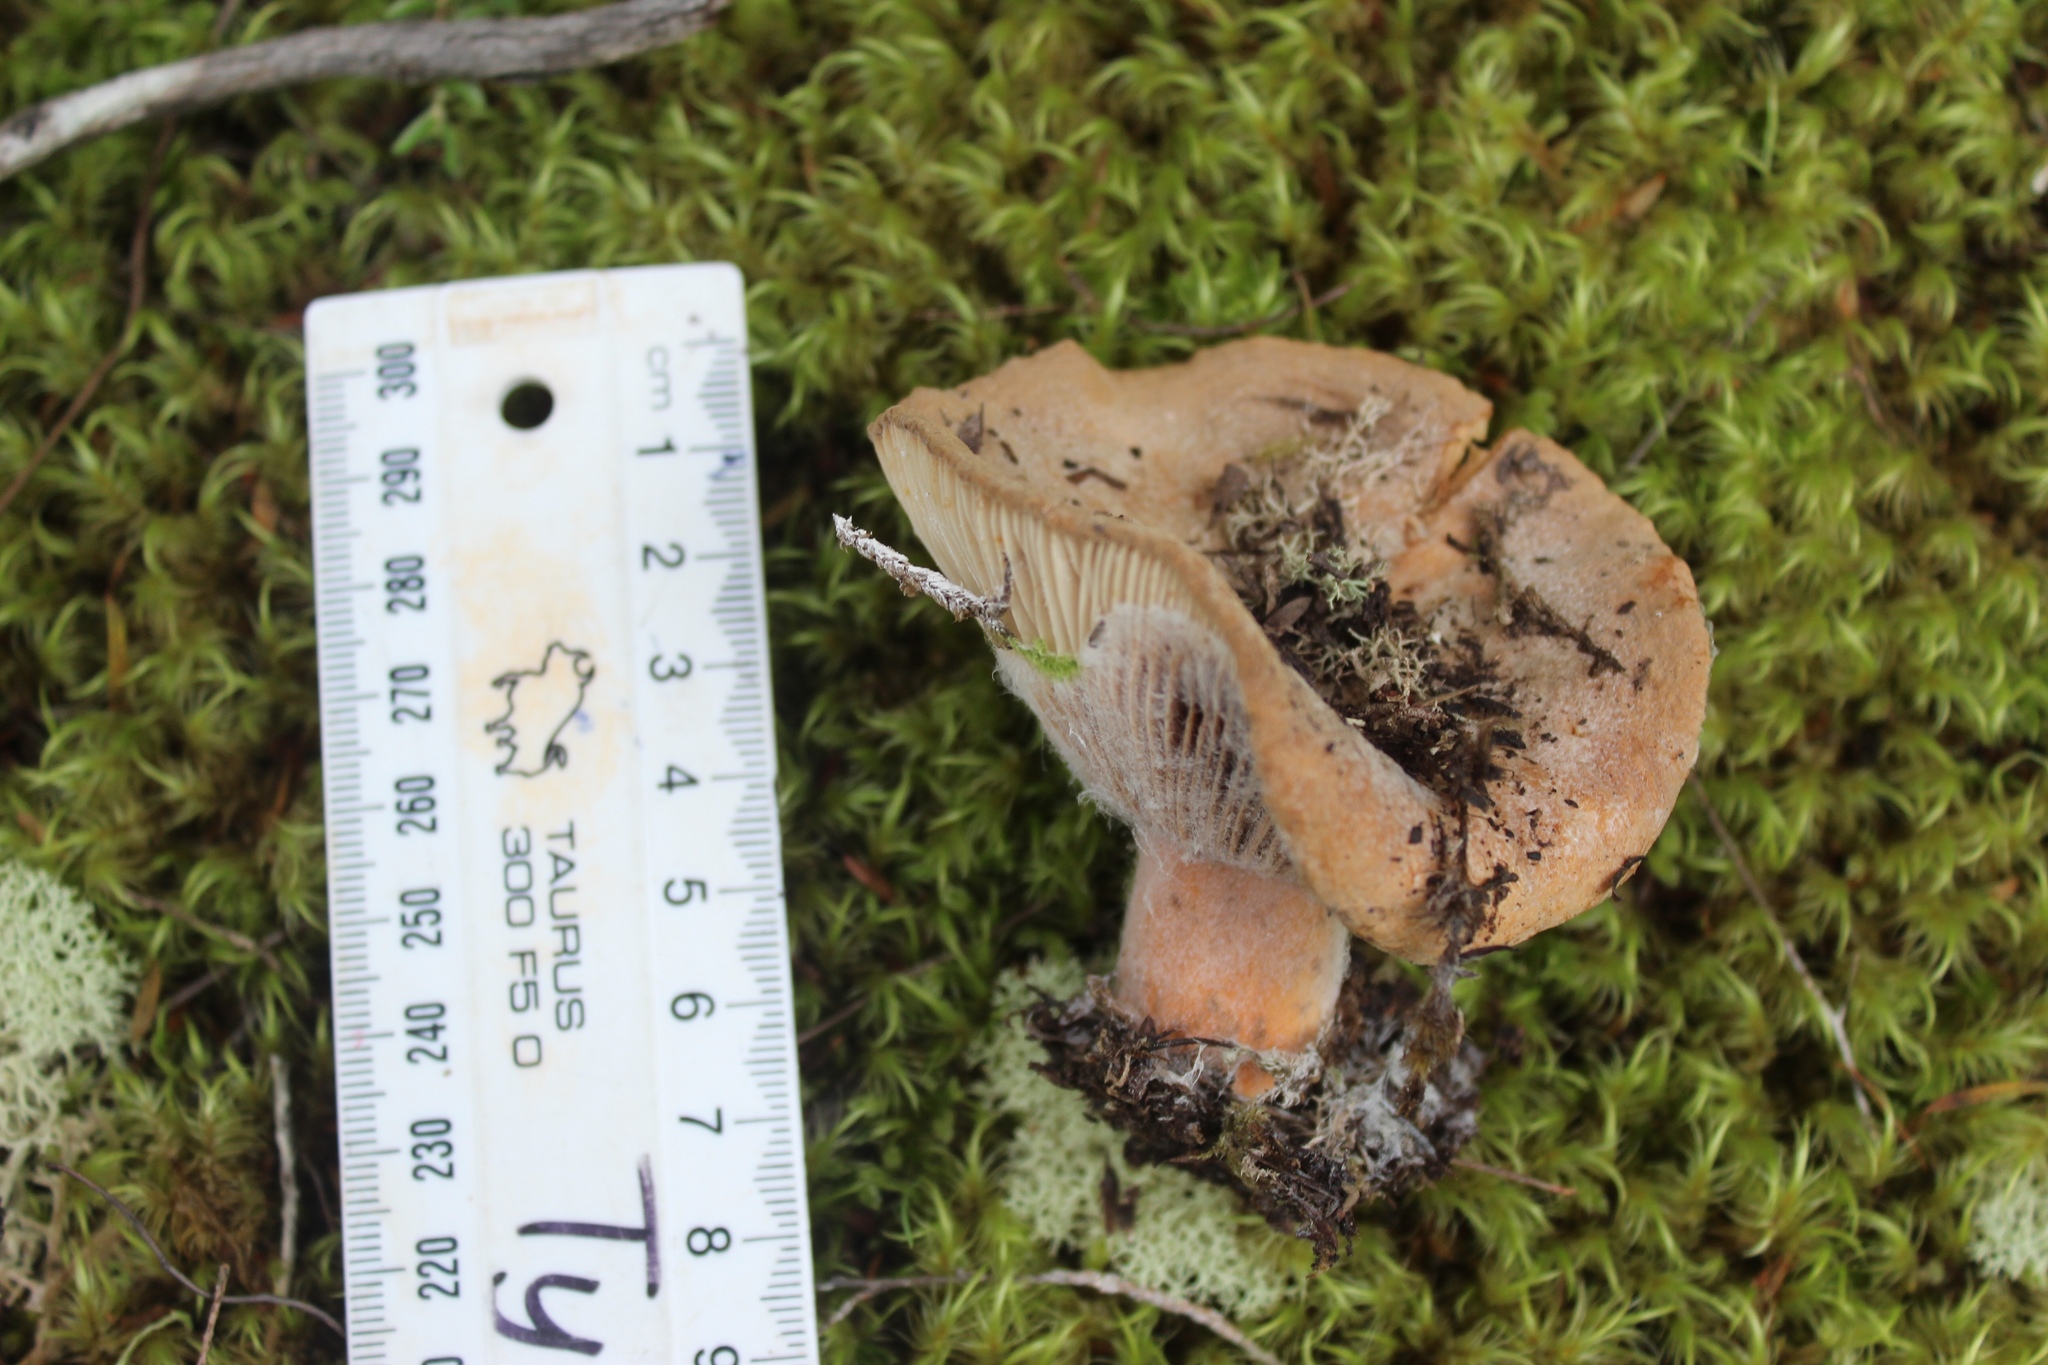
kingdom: Fungi
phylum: Basidiomycota
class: Agaricomycetes
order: Russulales
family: Russulaceae
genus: Lactifluus
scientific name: Lactifluus clarkeae
